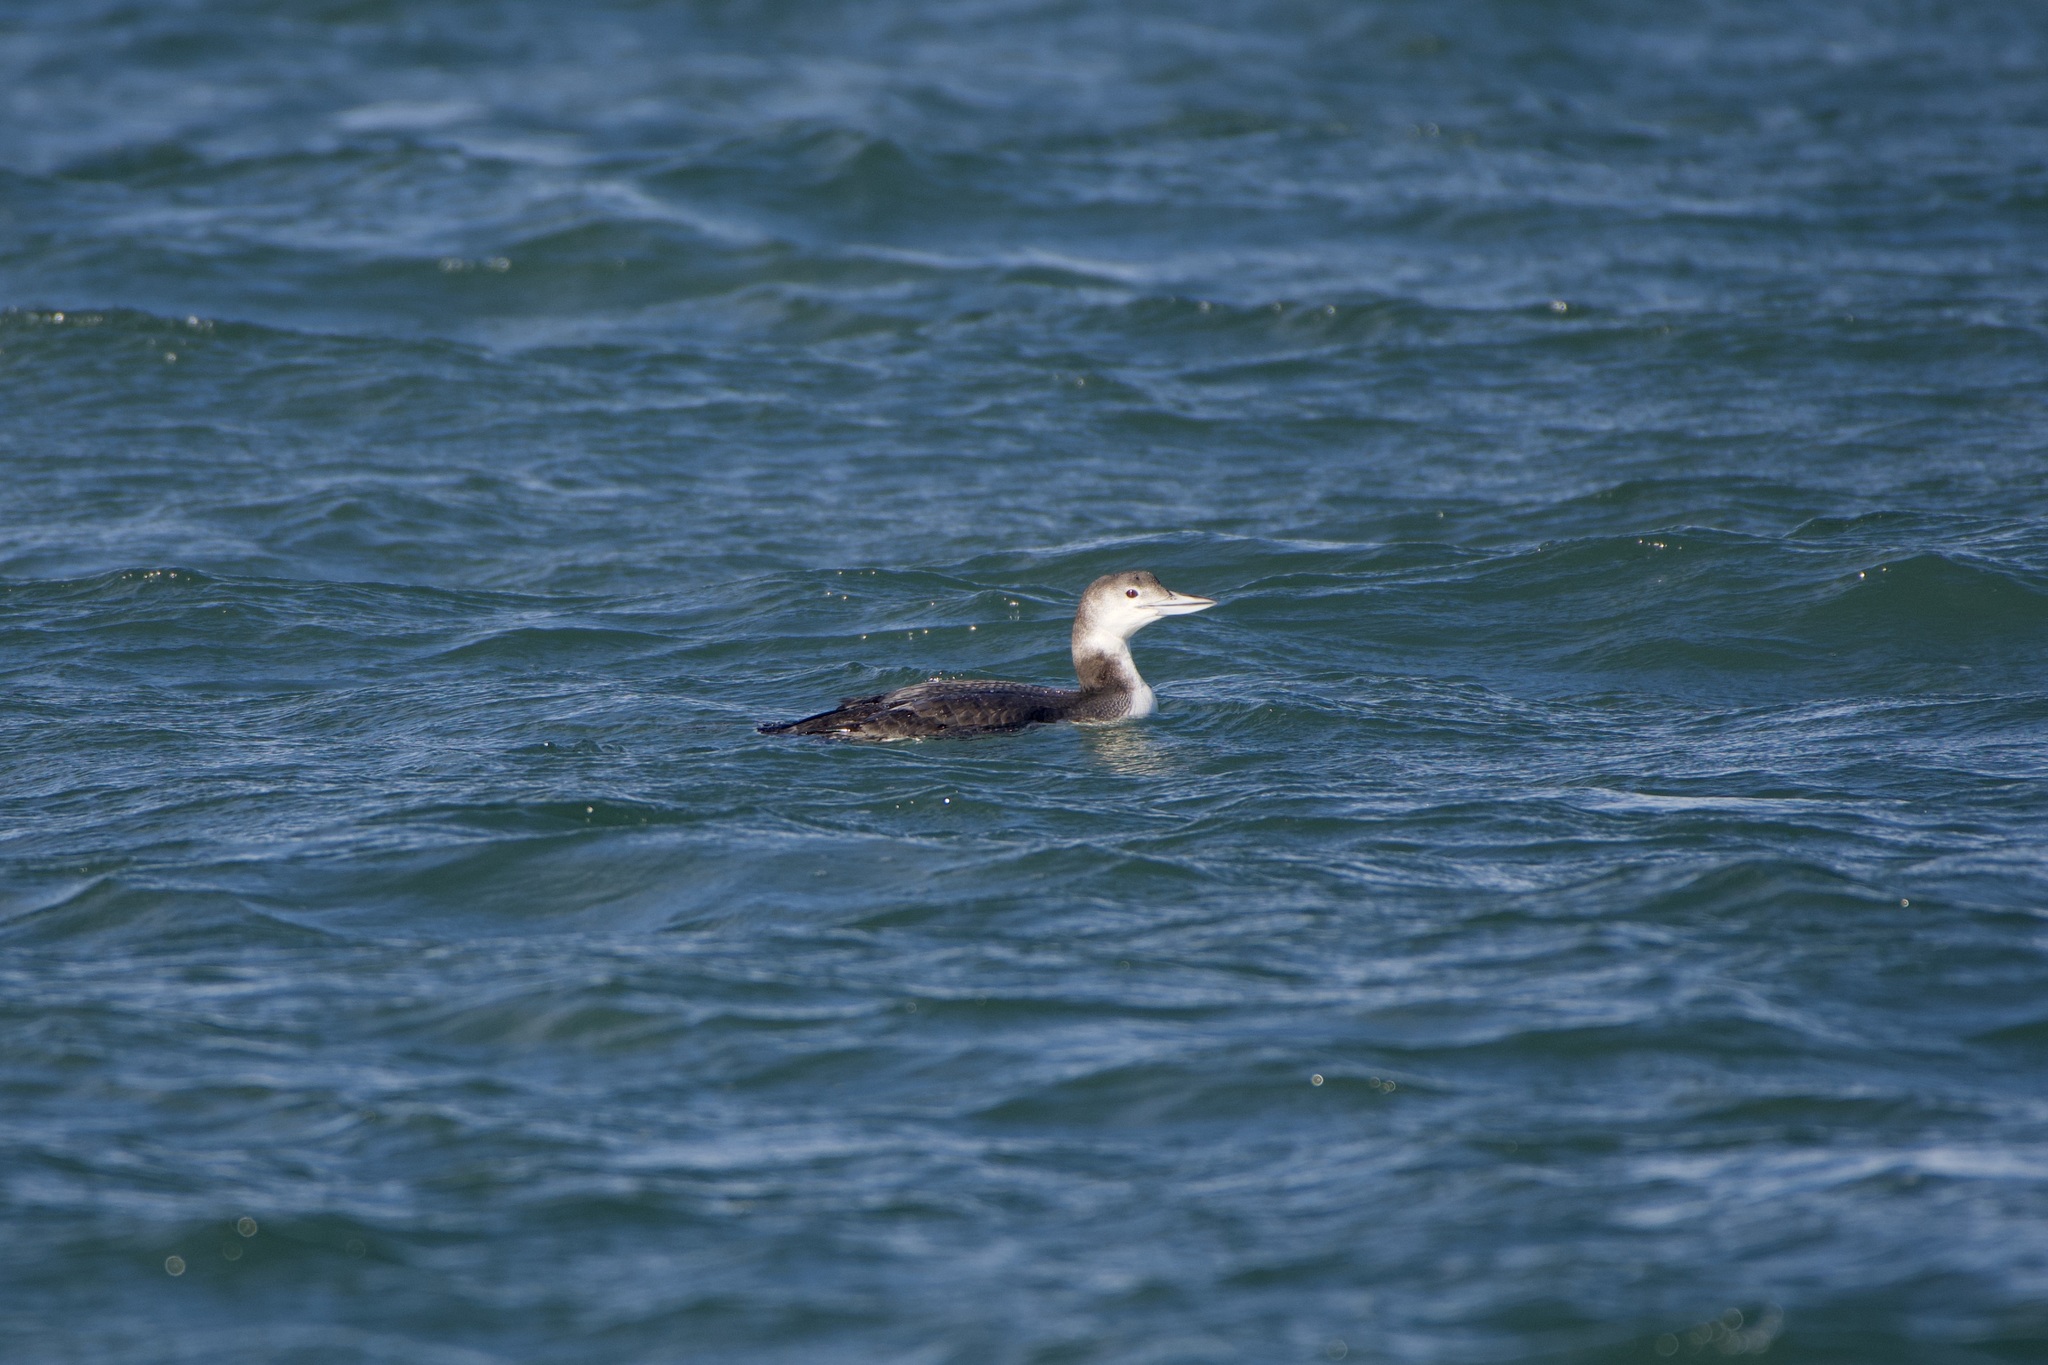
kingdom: Animalia
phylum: Chordata
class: Aves
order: Gaviiformes
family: Gaviidae
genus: Gavia
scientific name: Gavia immer
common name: Common loon
